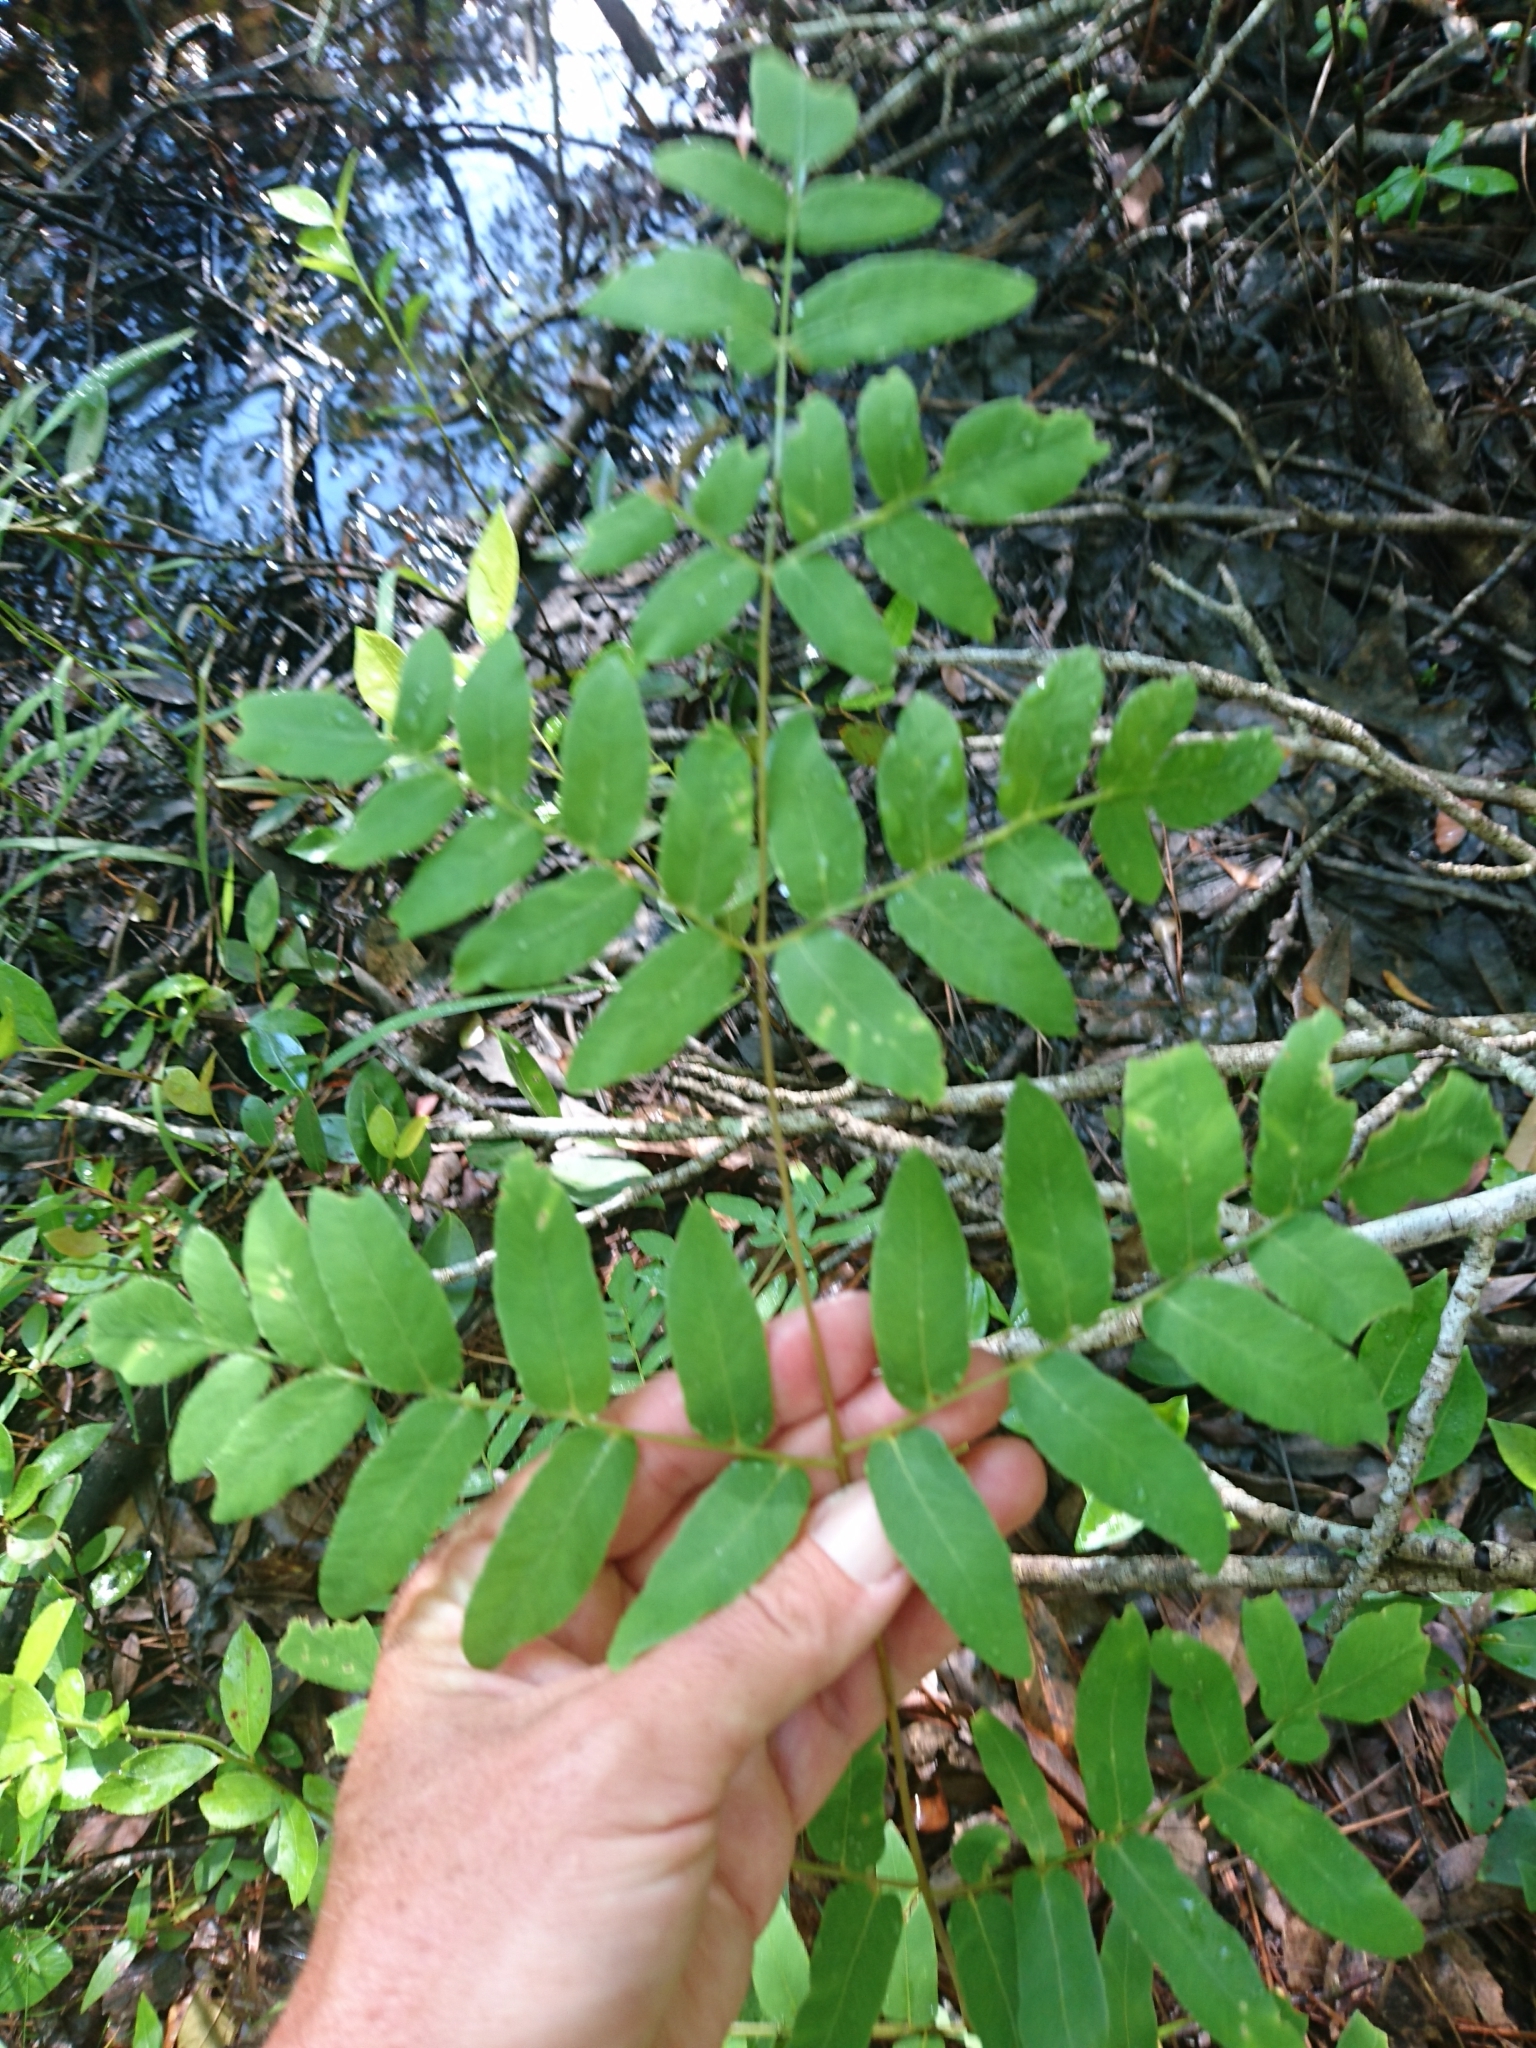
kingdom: Plantae
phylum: Tracheophyta
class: Polypodiopsida
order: Osmundales
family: Osmundaceae
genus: Osmunda
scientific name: Osmunda spectabilis
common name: American royal fern
